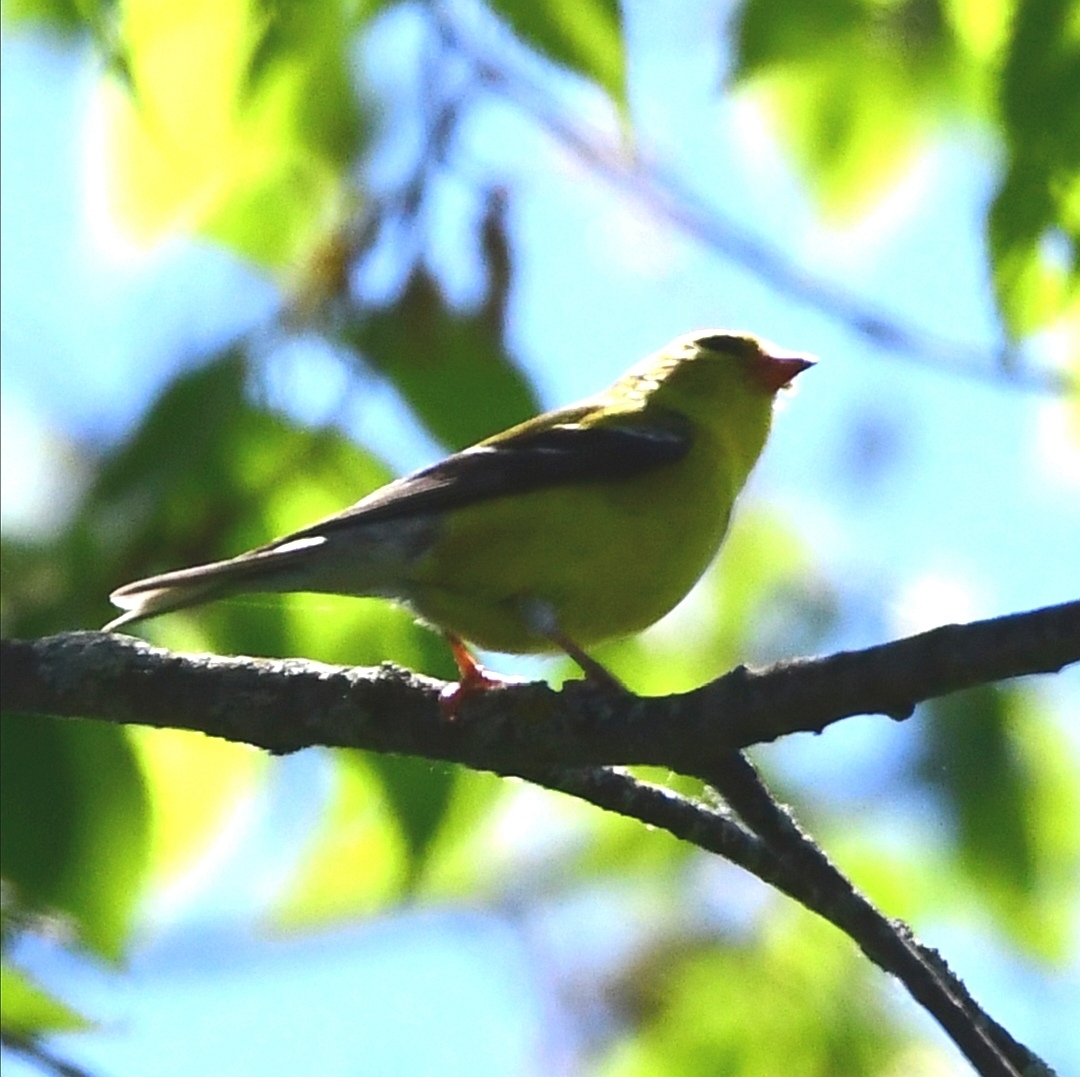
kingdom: Animalia
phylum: Chordata
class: Aves
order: Passeriformes
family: Fringillidae
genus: Spinus
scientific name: Spinus tristis
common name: American goldfinch
